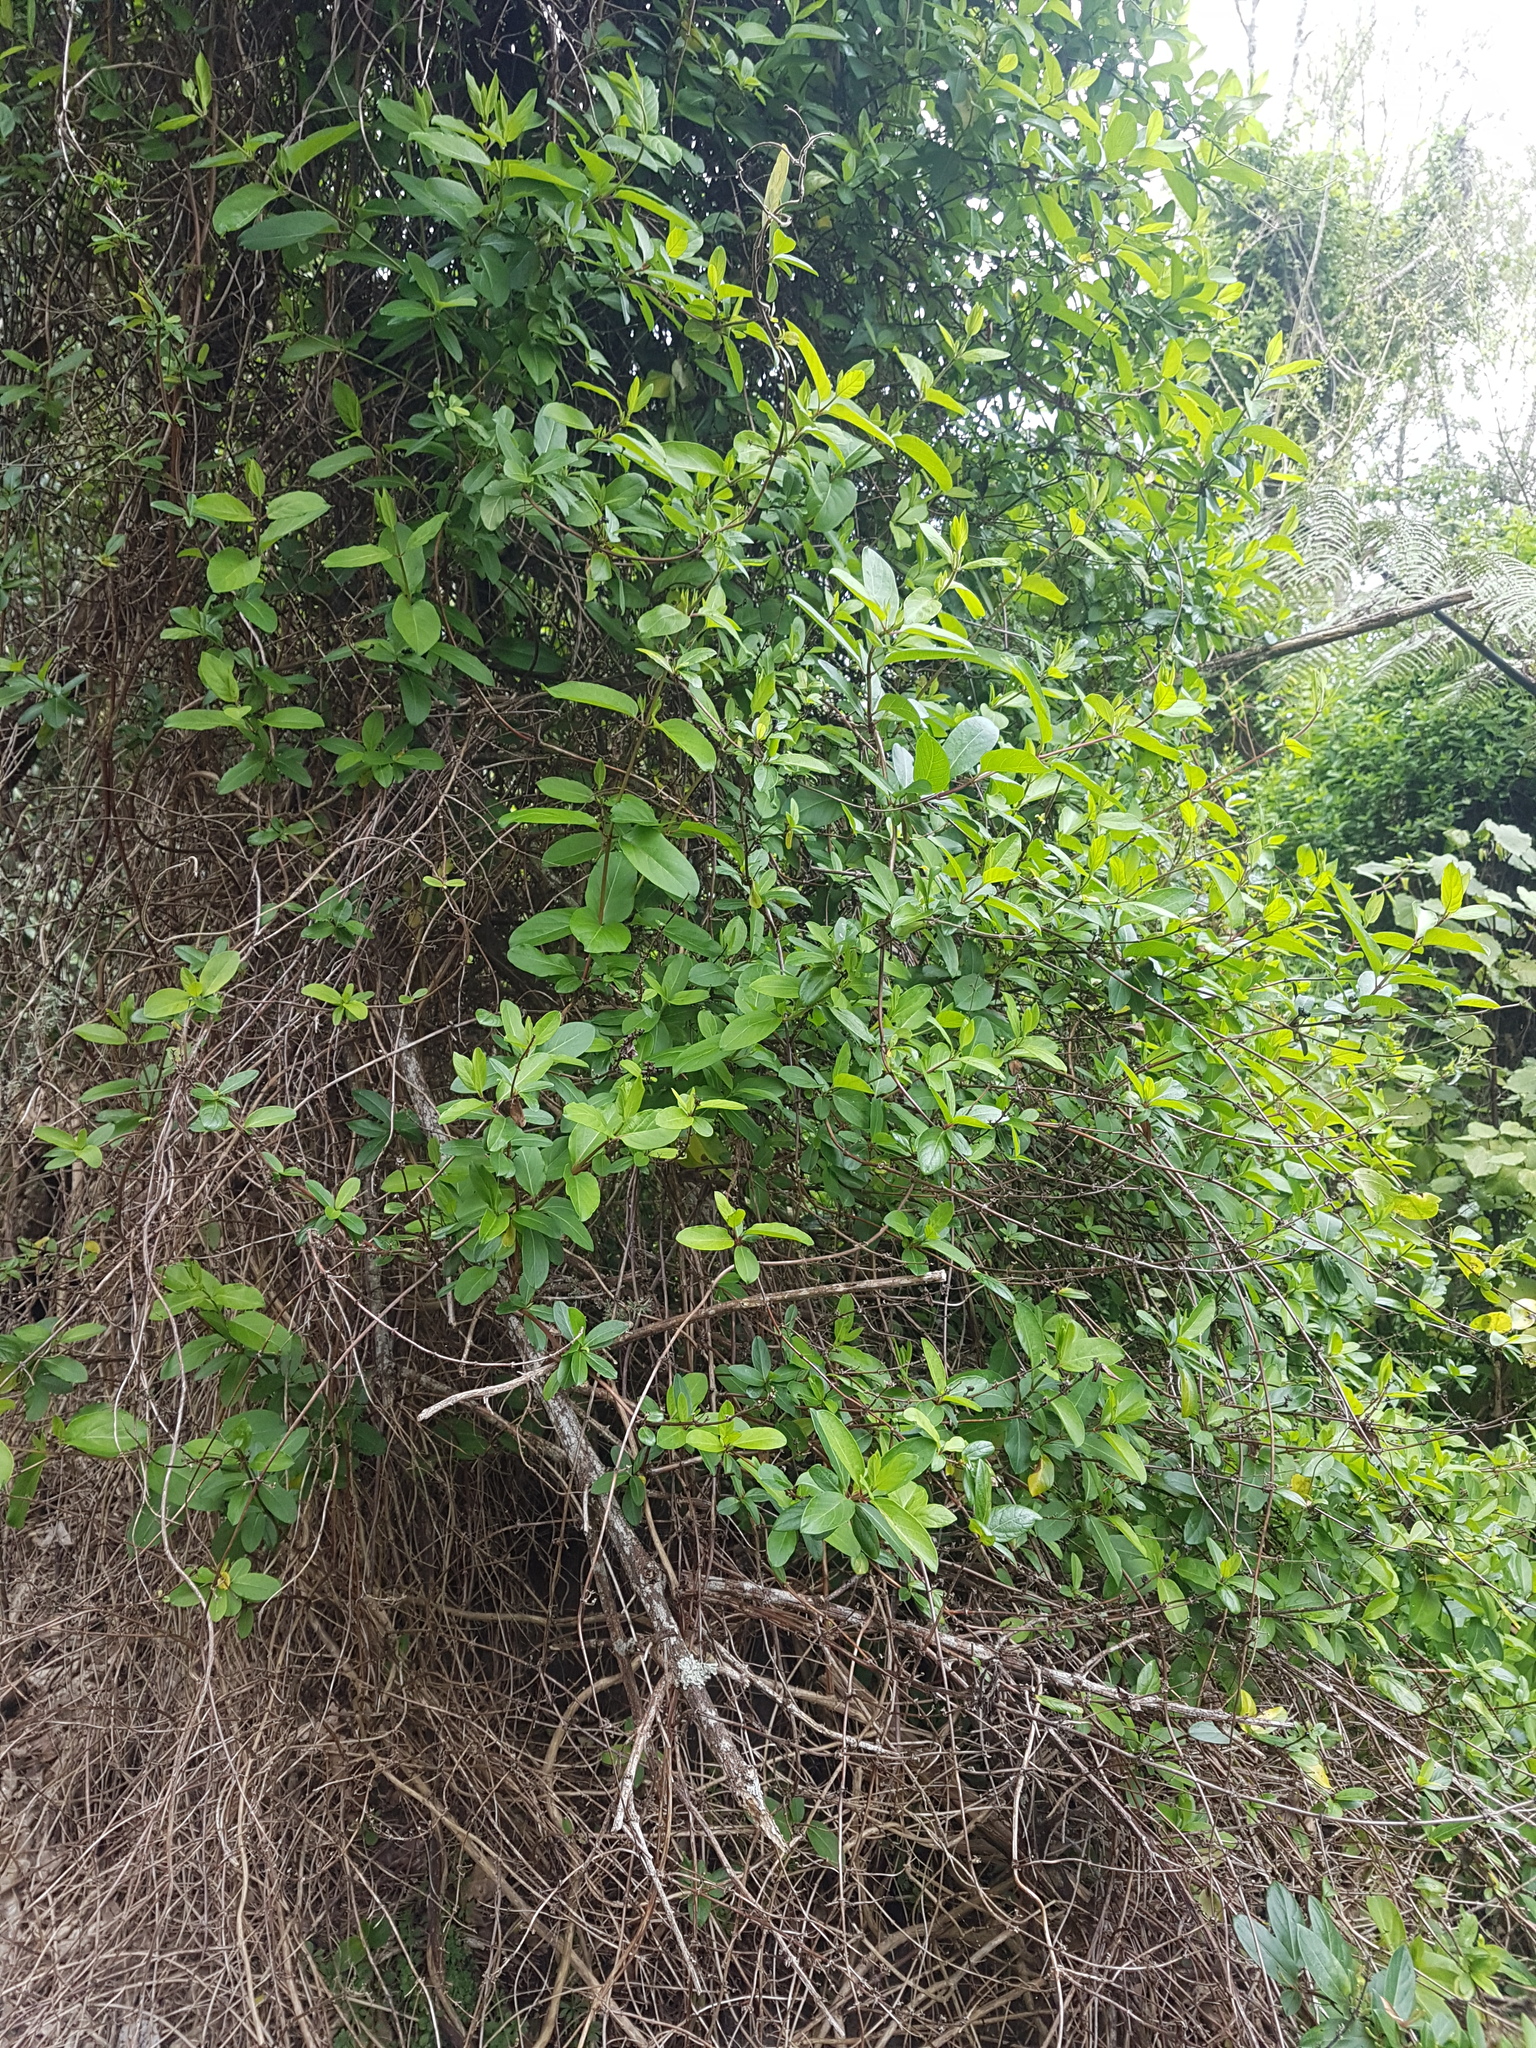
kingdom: Plantae
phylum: Tracheophyta
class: Magnoliopsida
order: Dipsacales
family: Caprifoliaceae
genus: Lonicera
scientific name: Lonicera japonica
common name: Japanese honeysuckle
